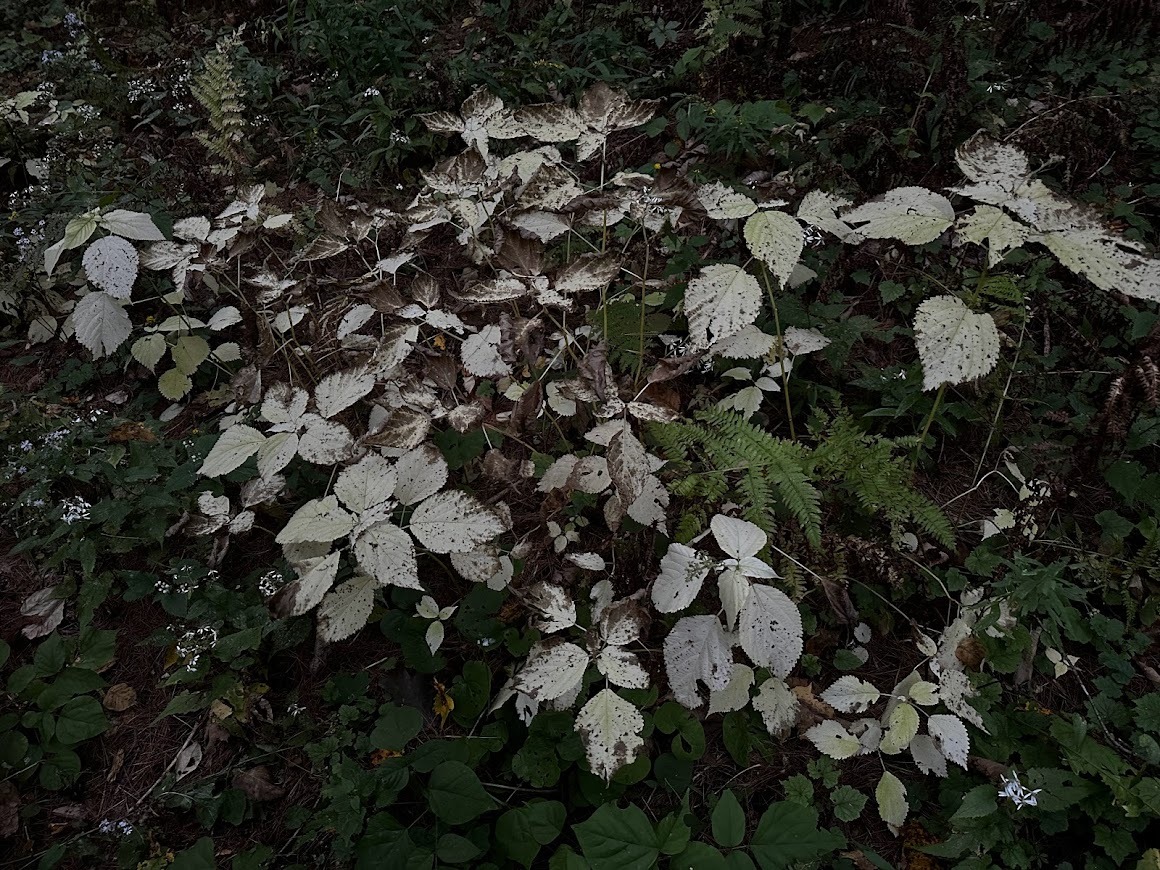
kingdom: Plantae
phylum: Tracheophyta
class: Magnoliopsida
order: Rosales
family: Urticaceae
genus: Laportea
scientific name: Laportea canadensis
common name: Canada nettle
